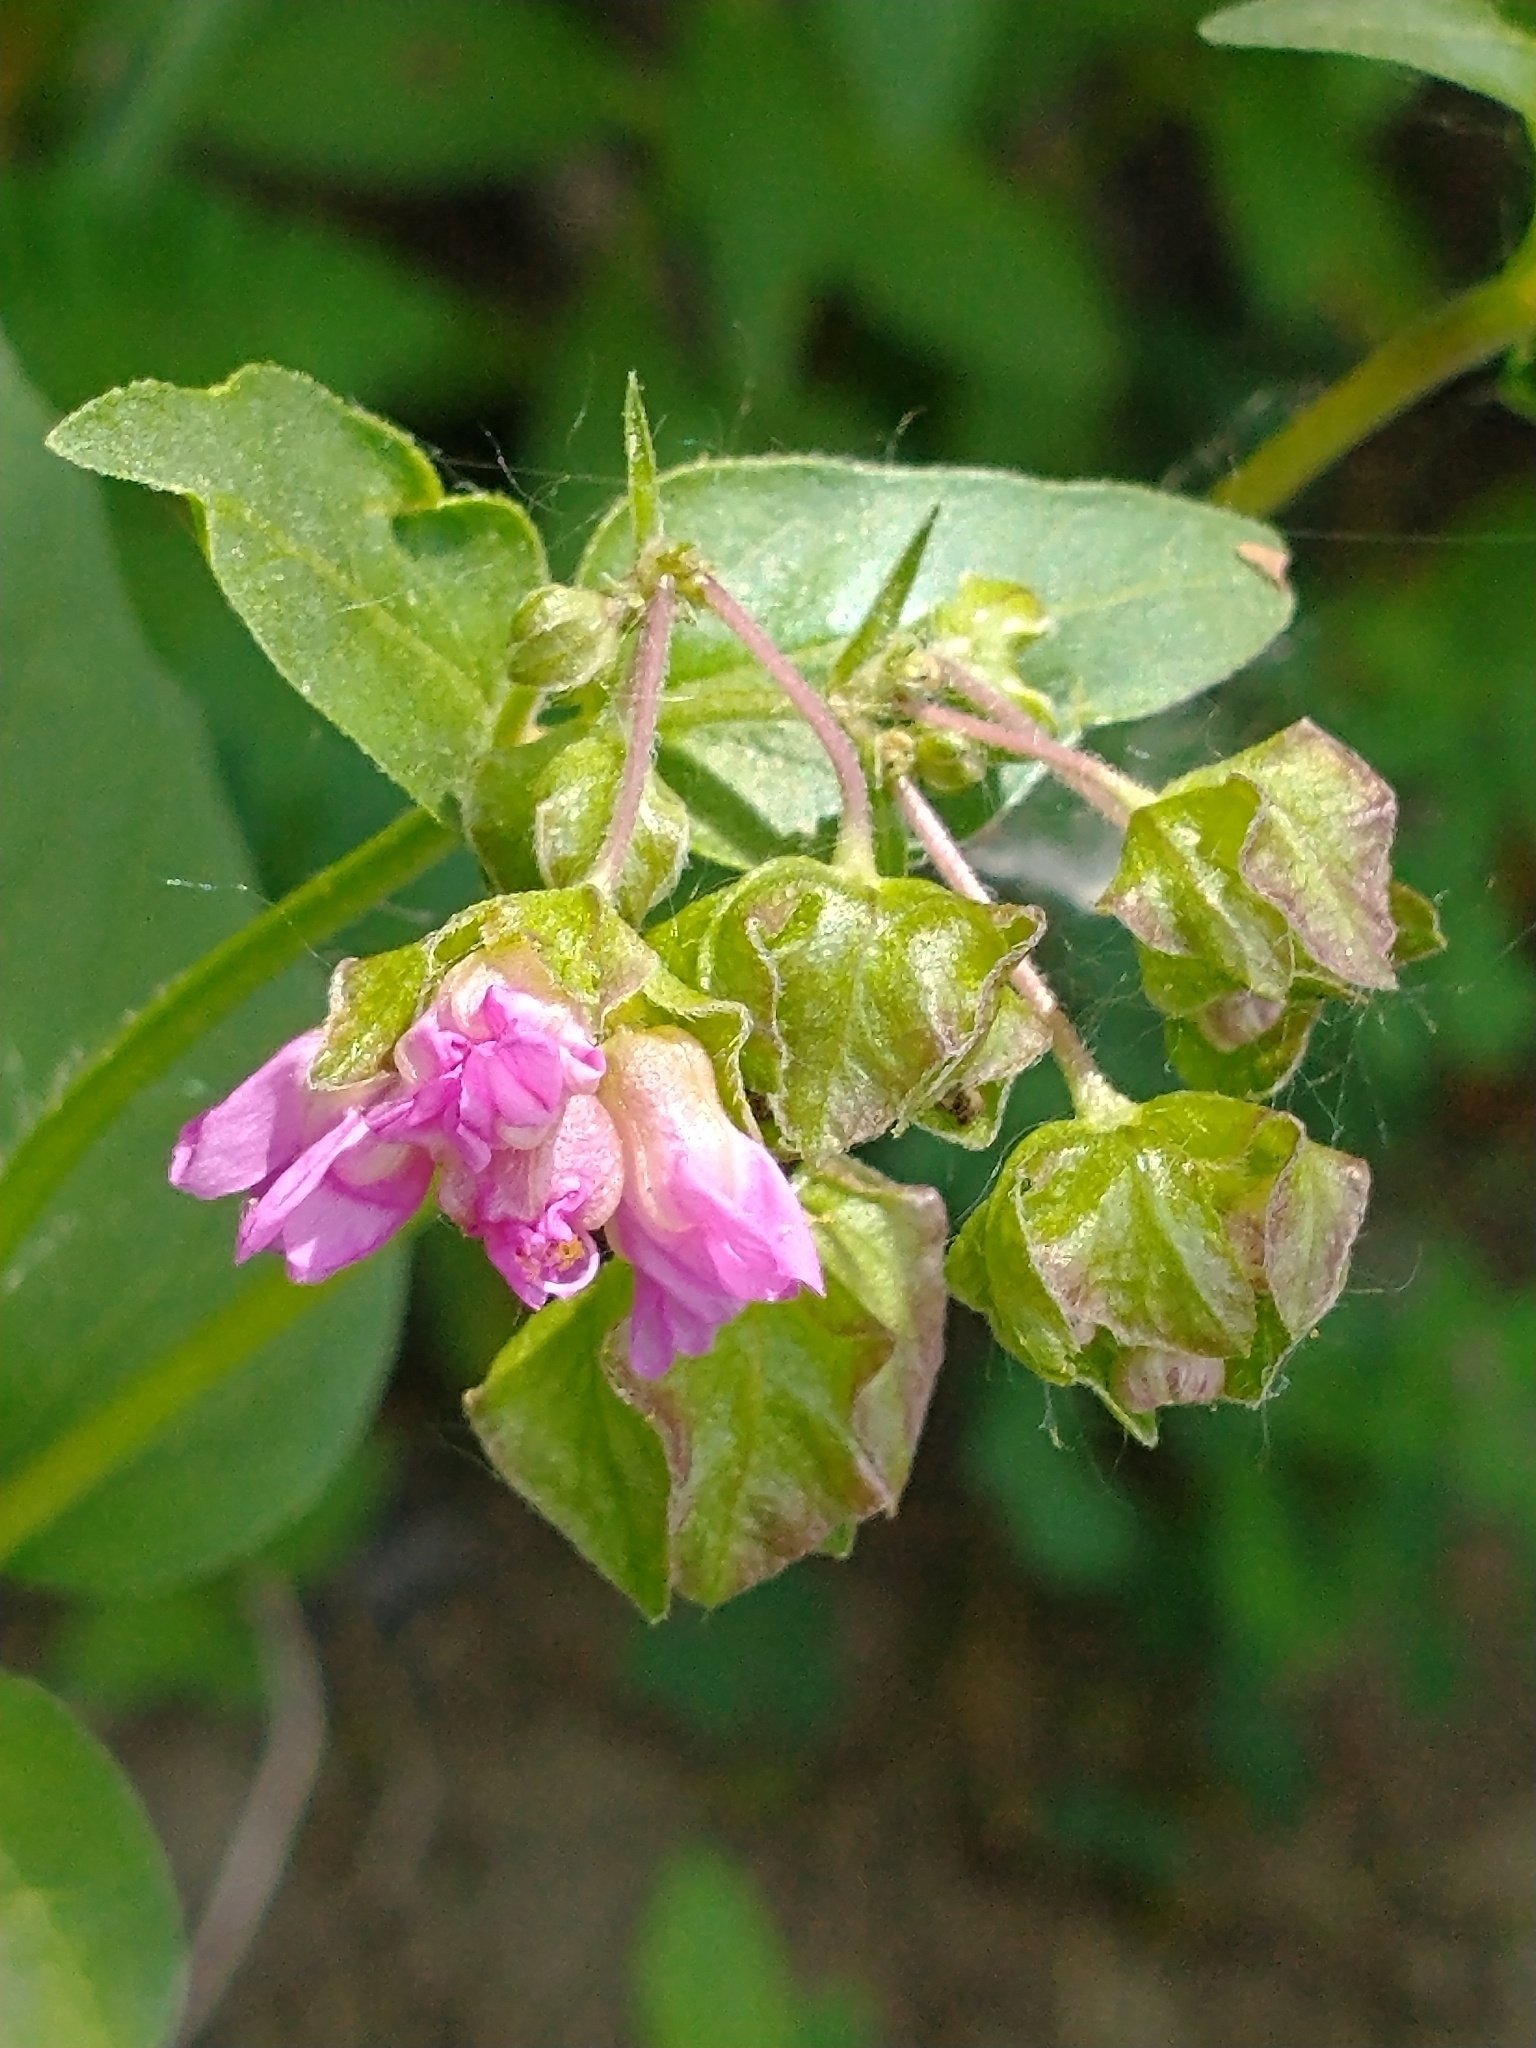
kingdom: Plantae
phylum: Tracheophyta
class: Magnoliopsida
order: Caryophyllales
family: Nyctaginaceae
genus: Mirabilis
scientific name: Mirabilis nyctaginea
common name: Umbrella wort
